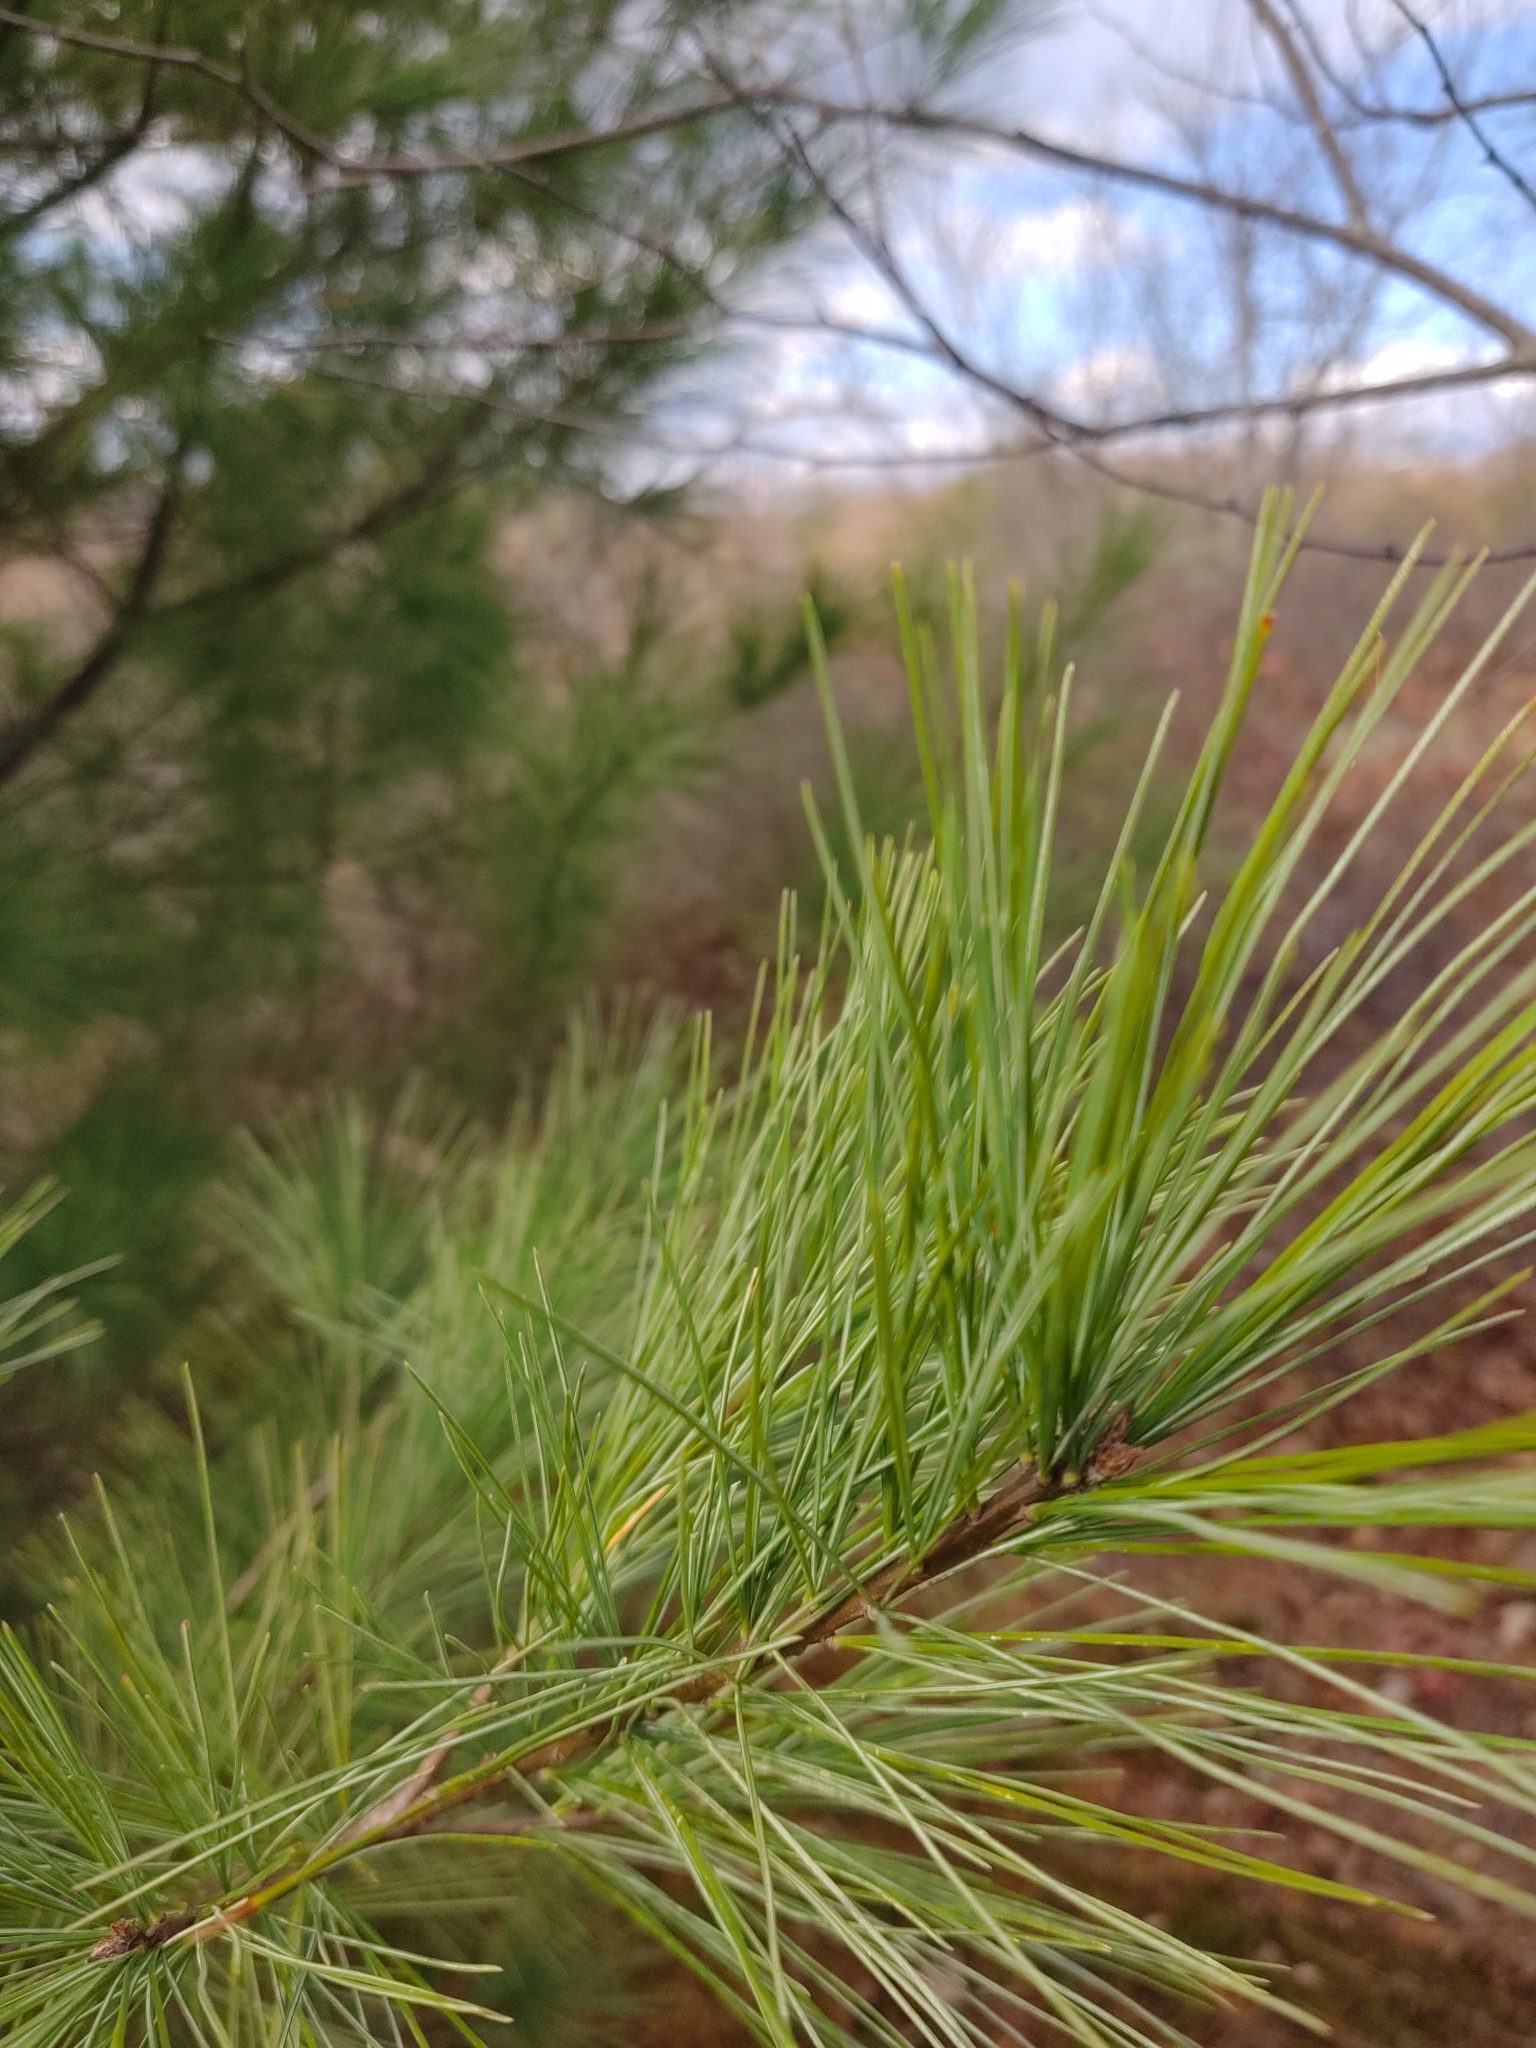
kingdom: Plantae
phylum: Tracheophyta
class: Pinopsida
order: Pinales
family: Pinaceae
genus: Pinus
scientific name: Pinus strobus
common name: Weymouth pine
